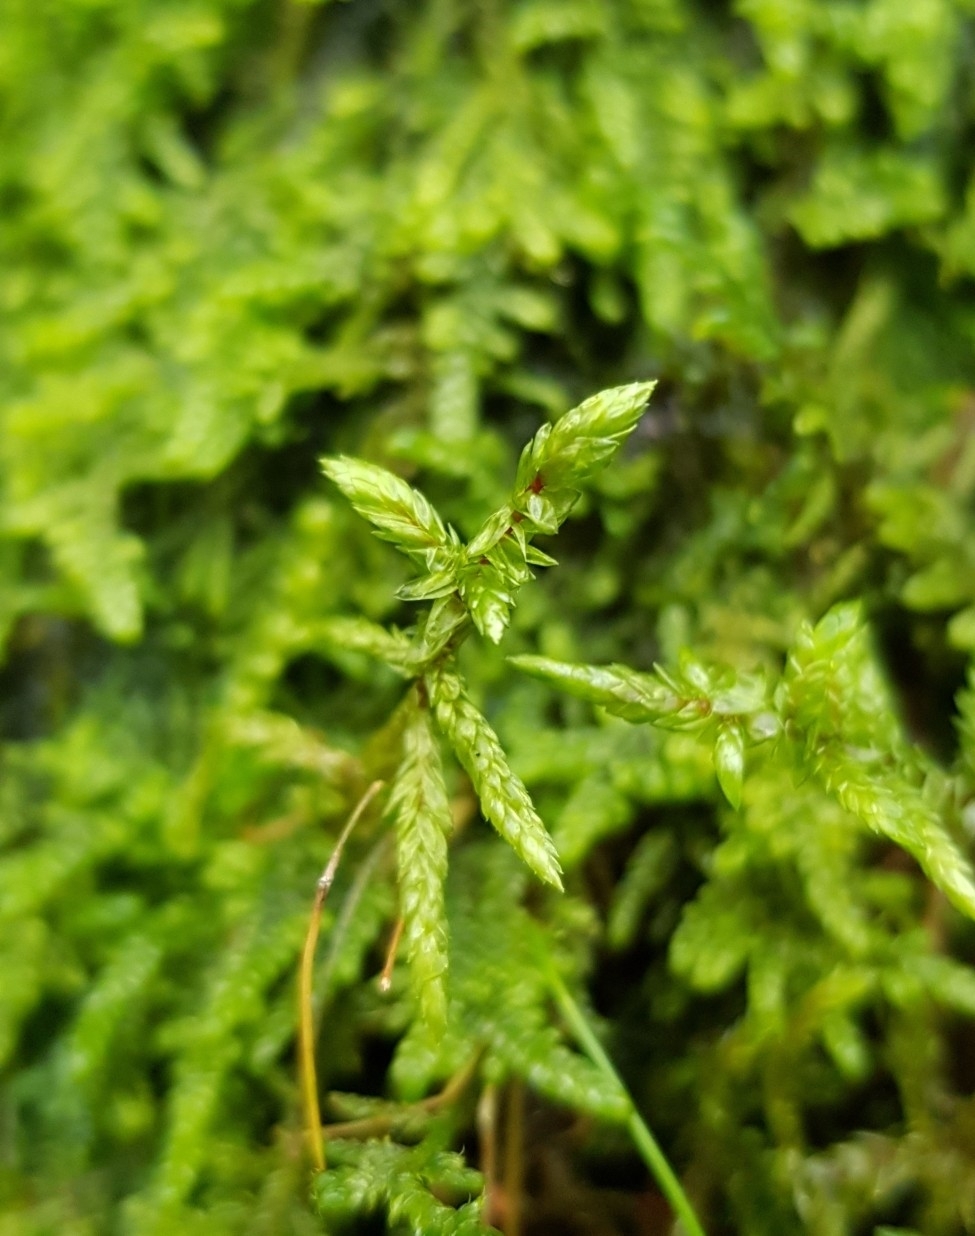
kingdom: Plantae
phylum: Bryophyta
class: Bryopsida
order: Hypnales
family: Hylocomiaceae
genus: Pleurozium
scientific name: Pleurozium schreberi
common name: Red-stemmed feather moss
